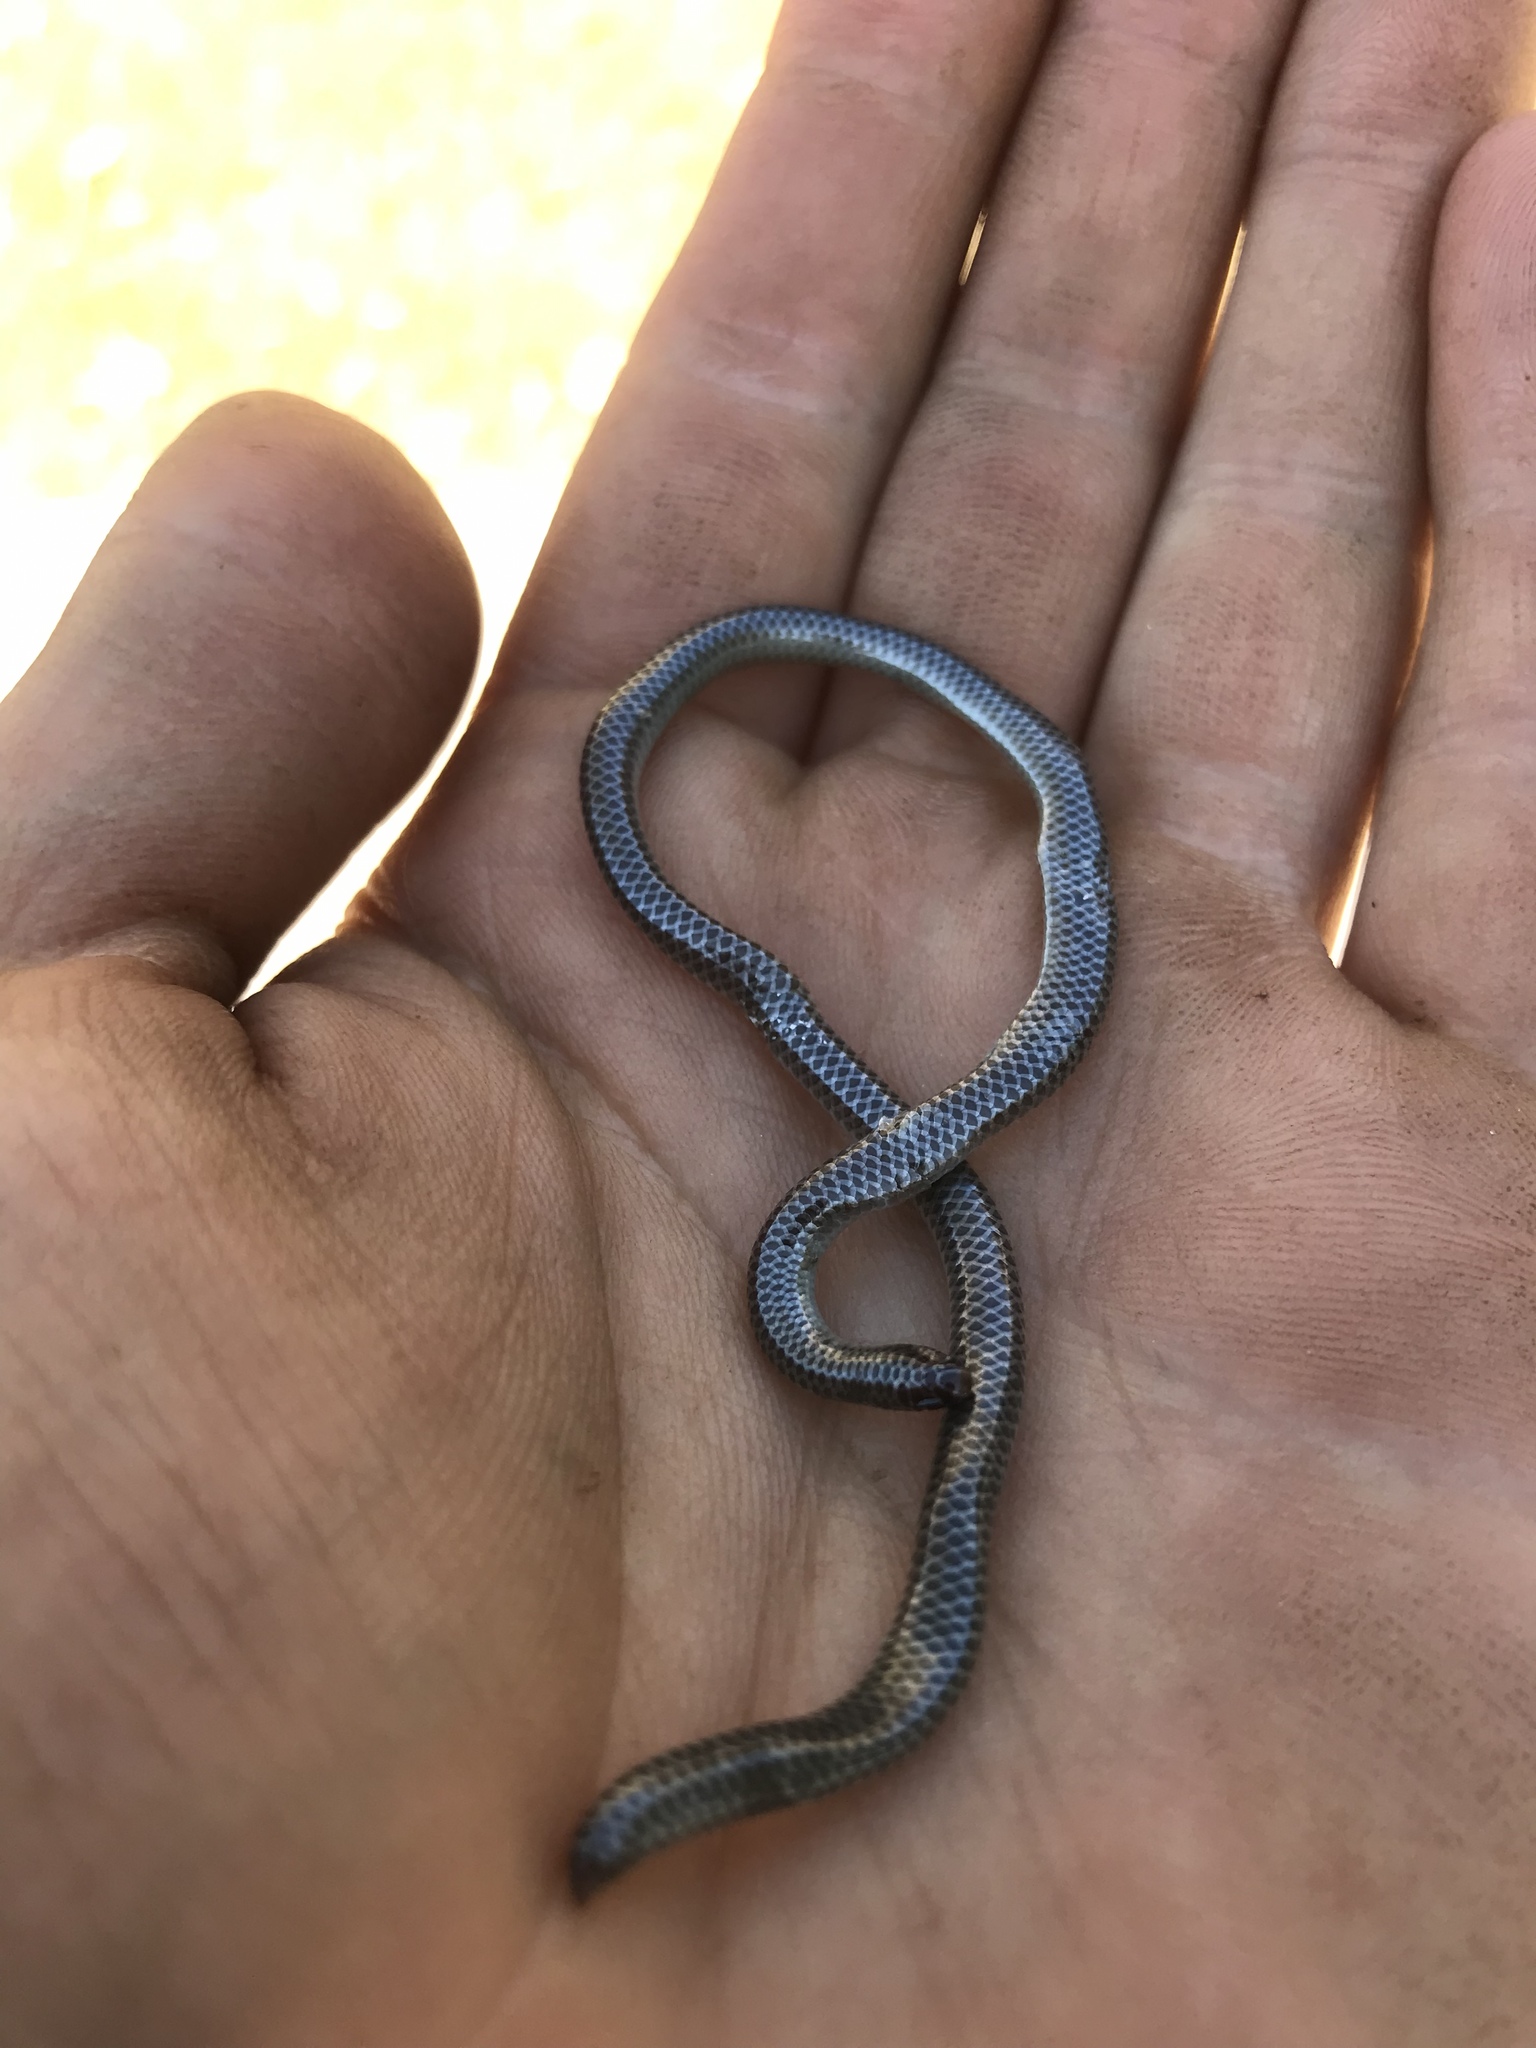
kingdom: Animalia
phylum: Chordata
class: Squamata
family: Leptotyphlopidae
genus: Rena
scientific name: Rena dulcis
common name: Texas blind snake
